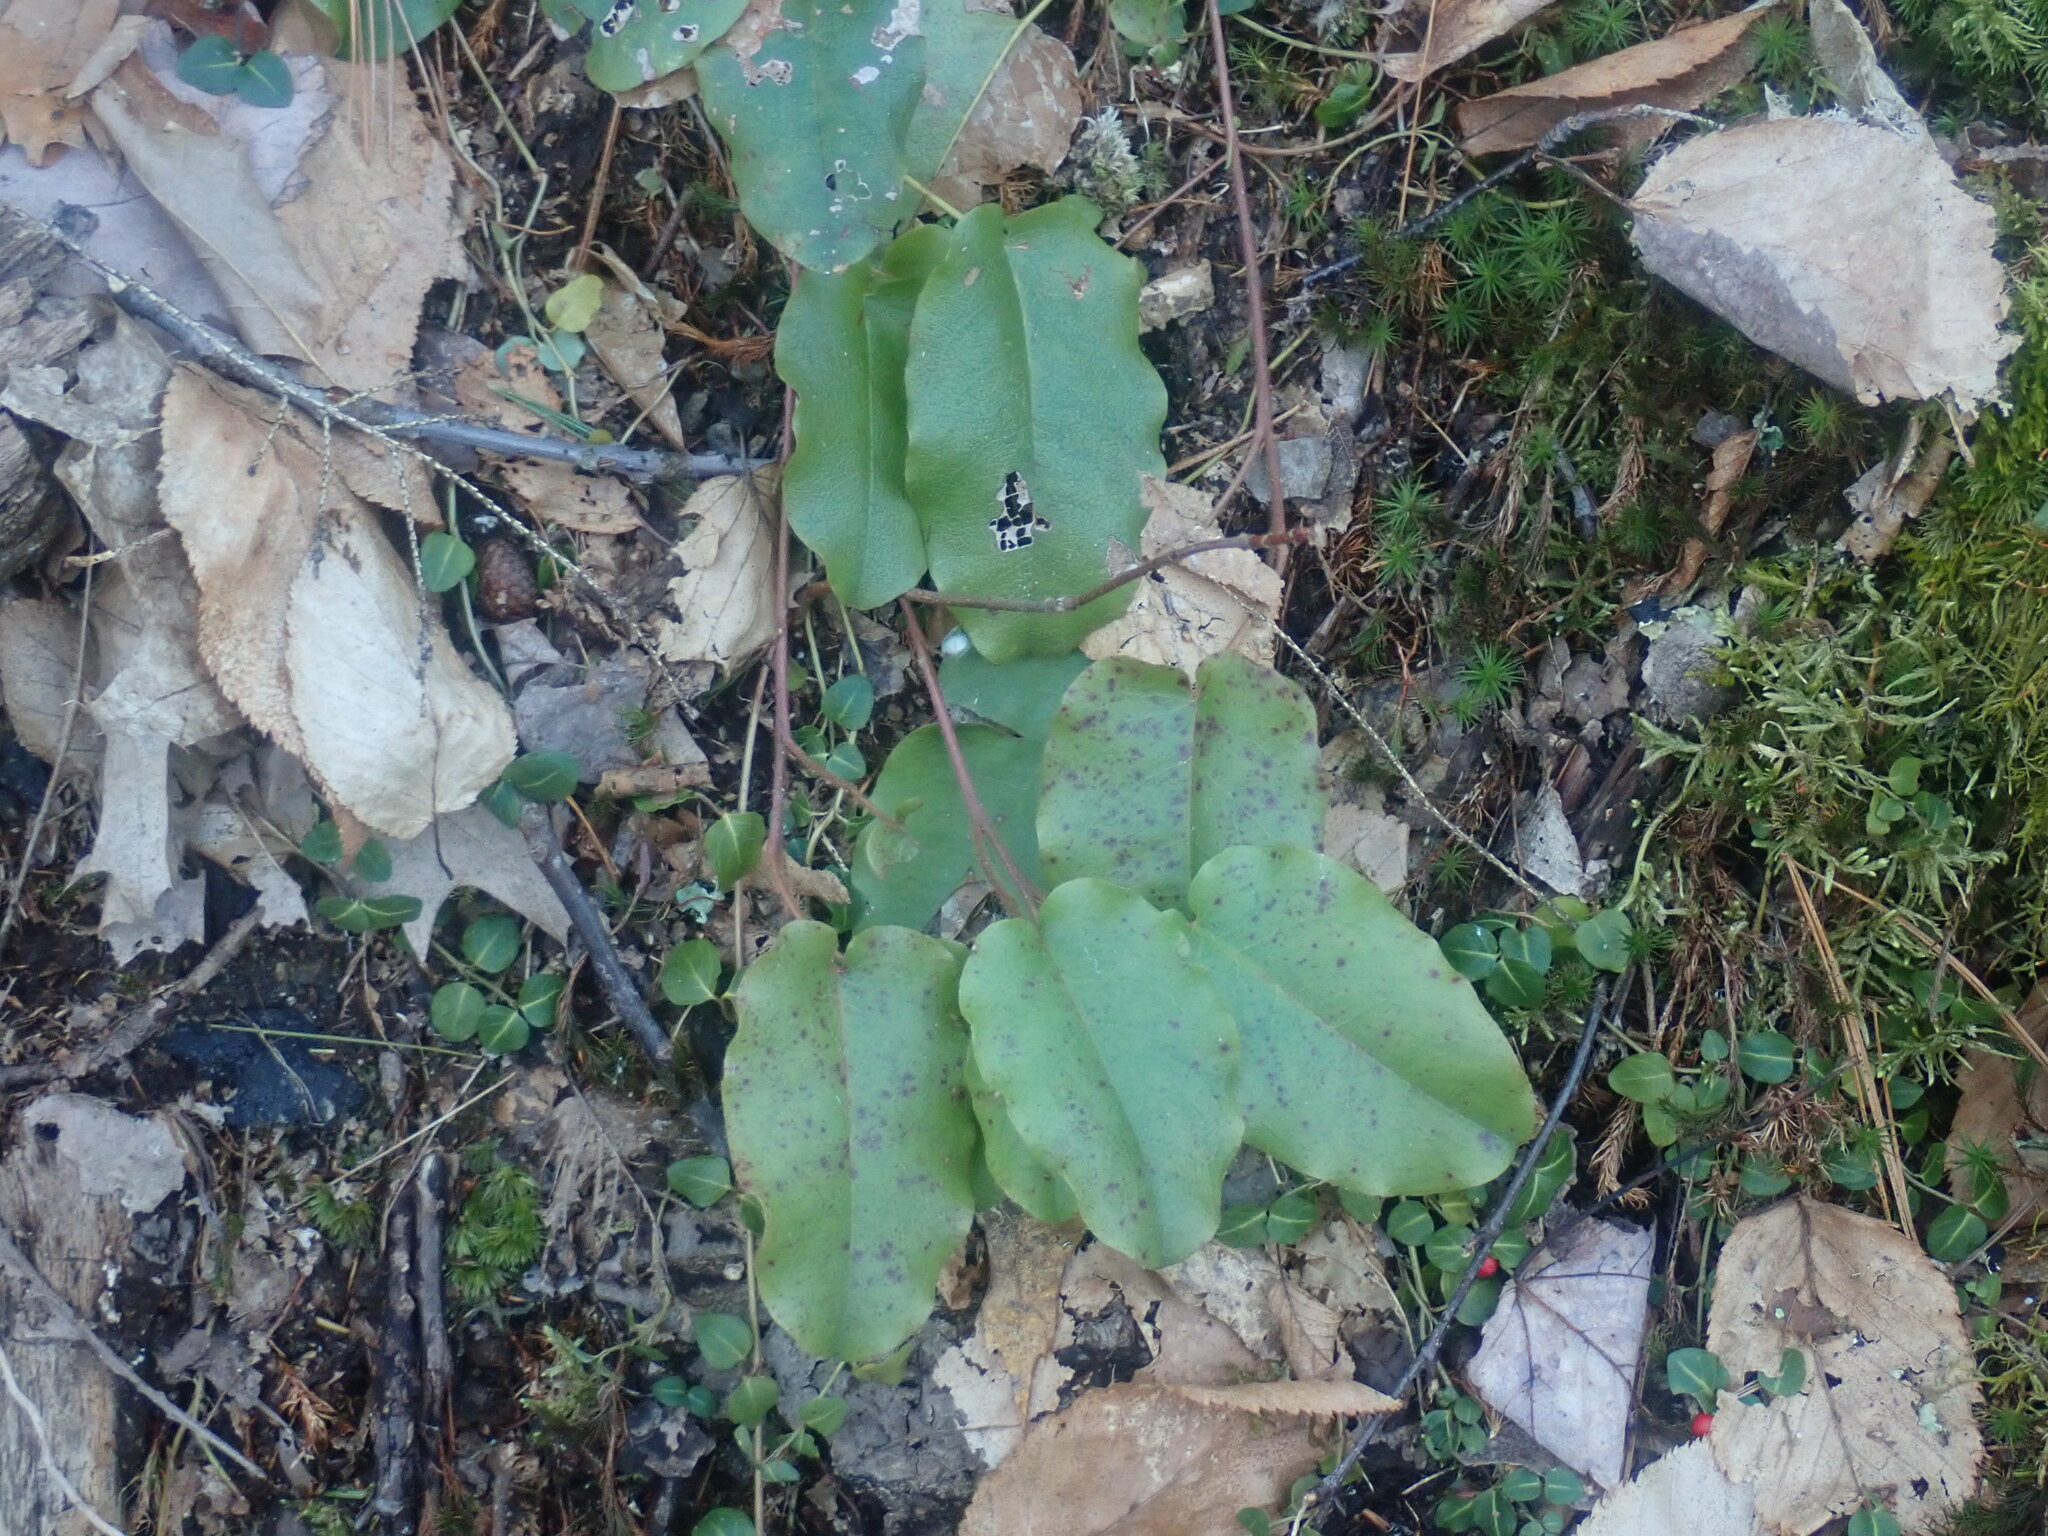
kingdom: Plantae
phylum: Tracheophyta
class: Magnoliopsida
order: Ericales
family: Ericaceae
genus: Epigaea
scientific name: Epigaea repens
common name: Gravelroot
